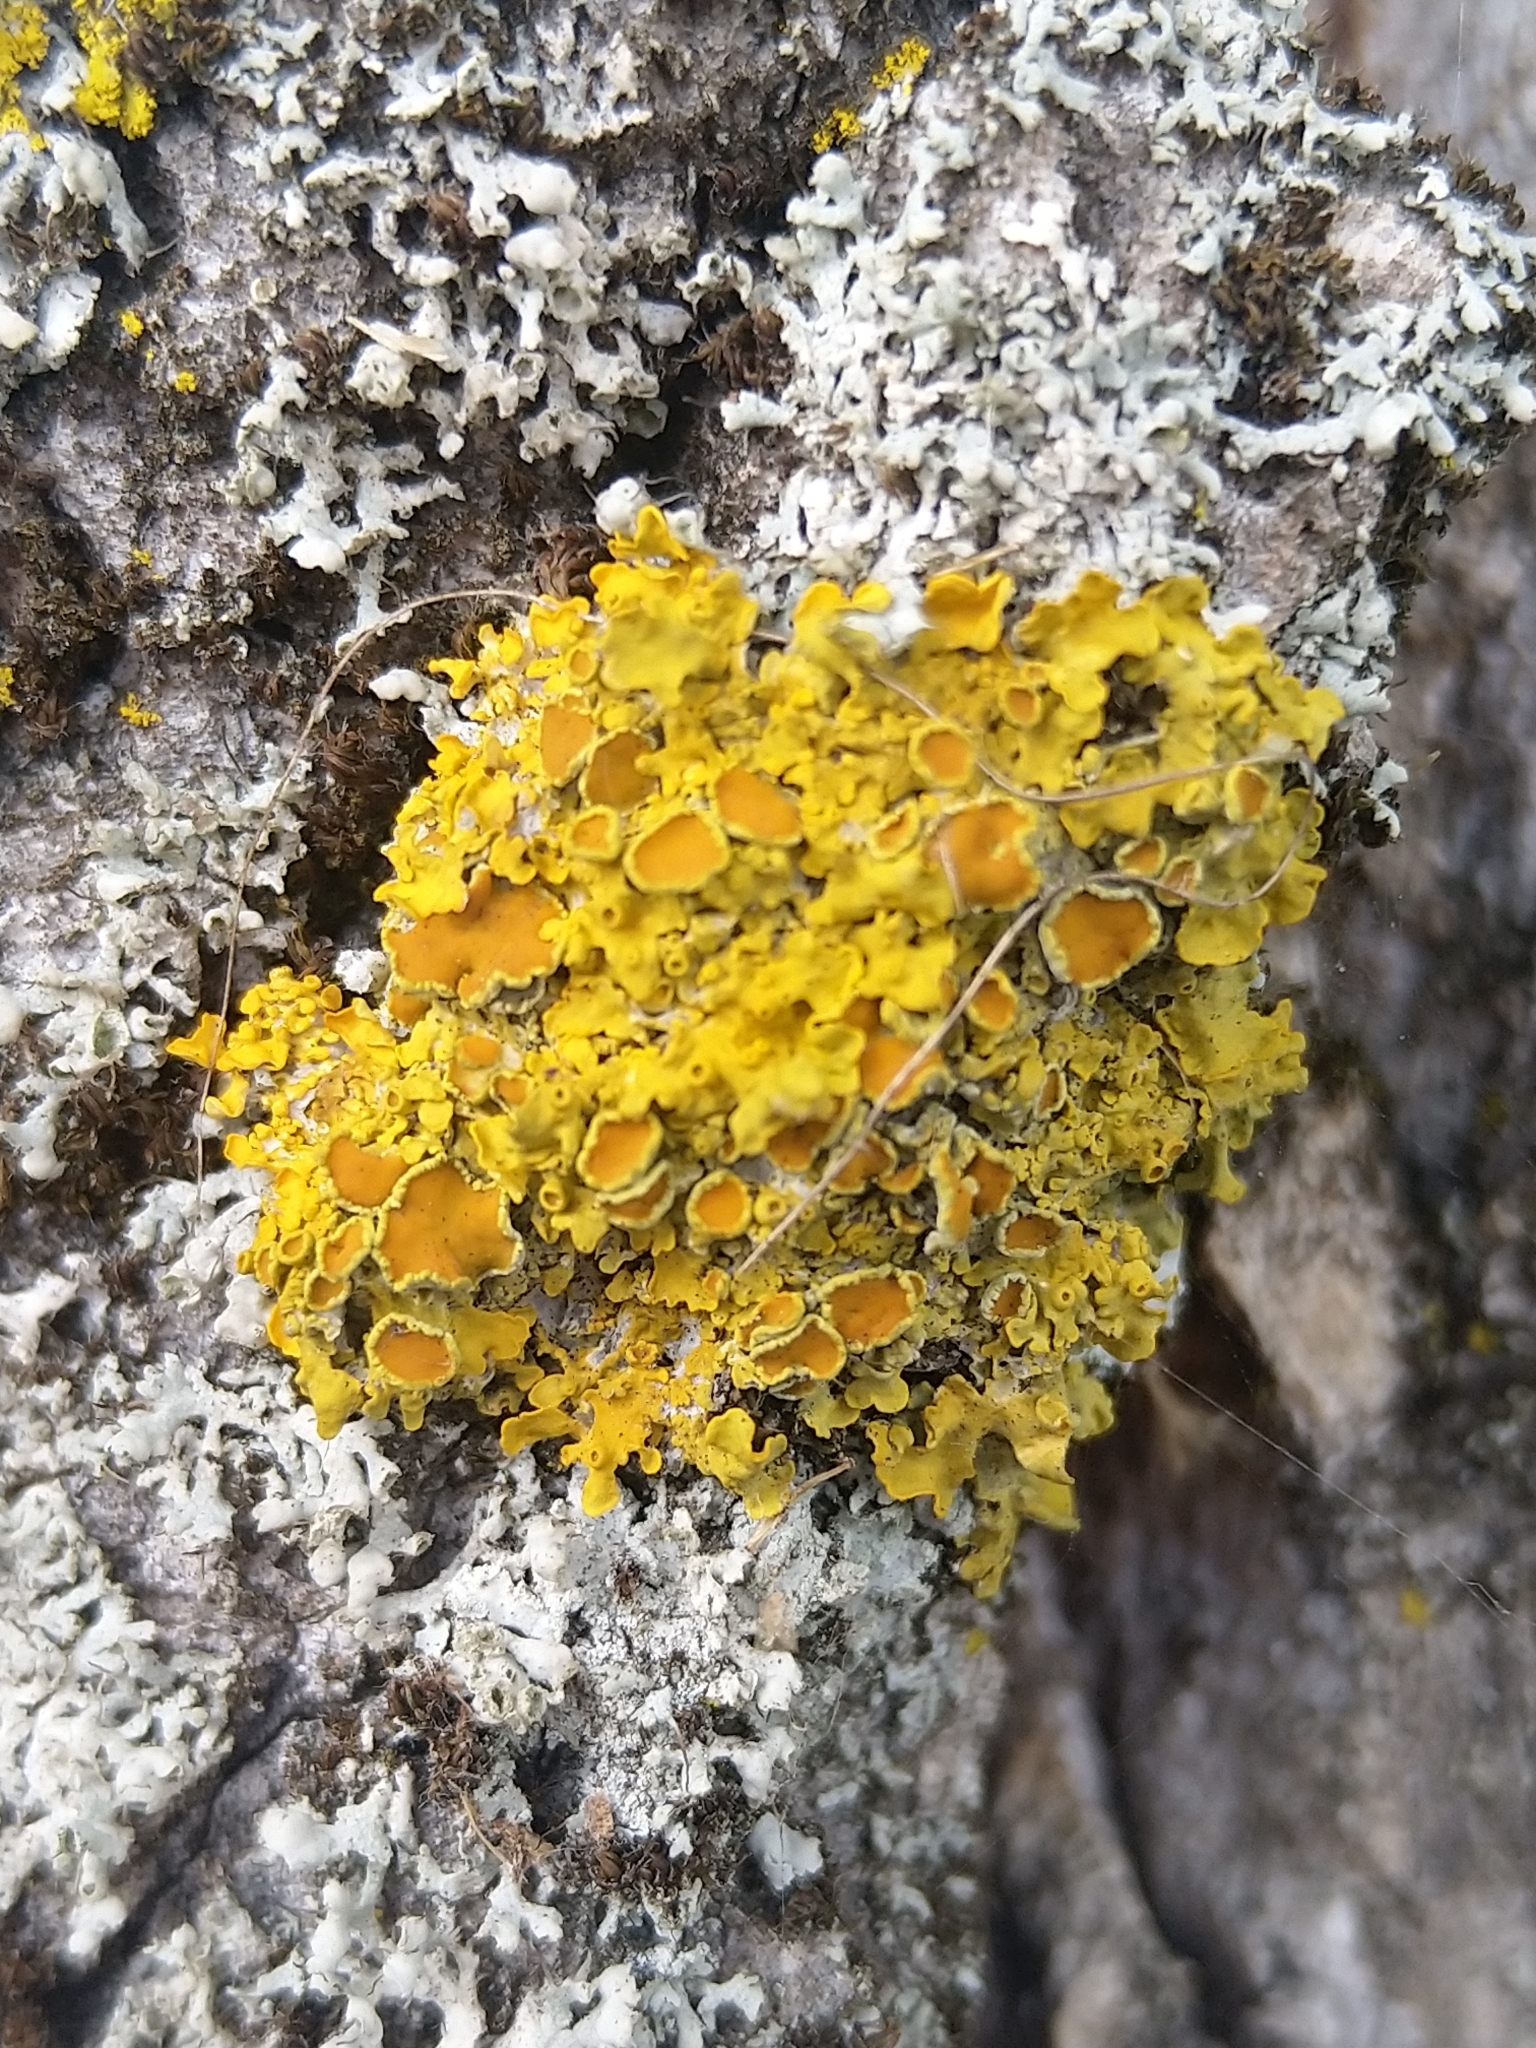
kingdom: Fungi
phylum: Ascomycota
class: Lecanoromycetes
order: Teloschistales
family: Teloschistaceae
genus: Xanthoria
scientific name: Xanthoria parietina
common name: Common orange lichen
